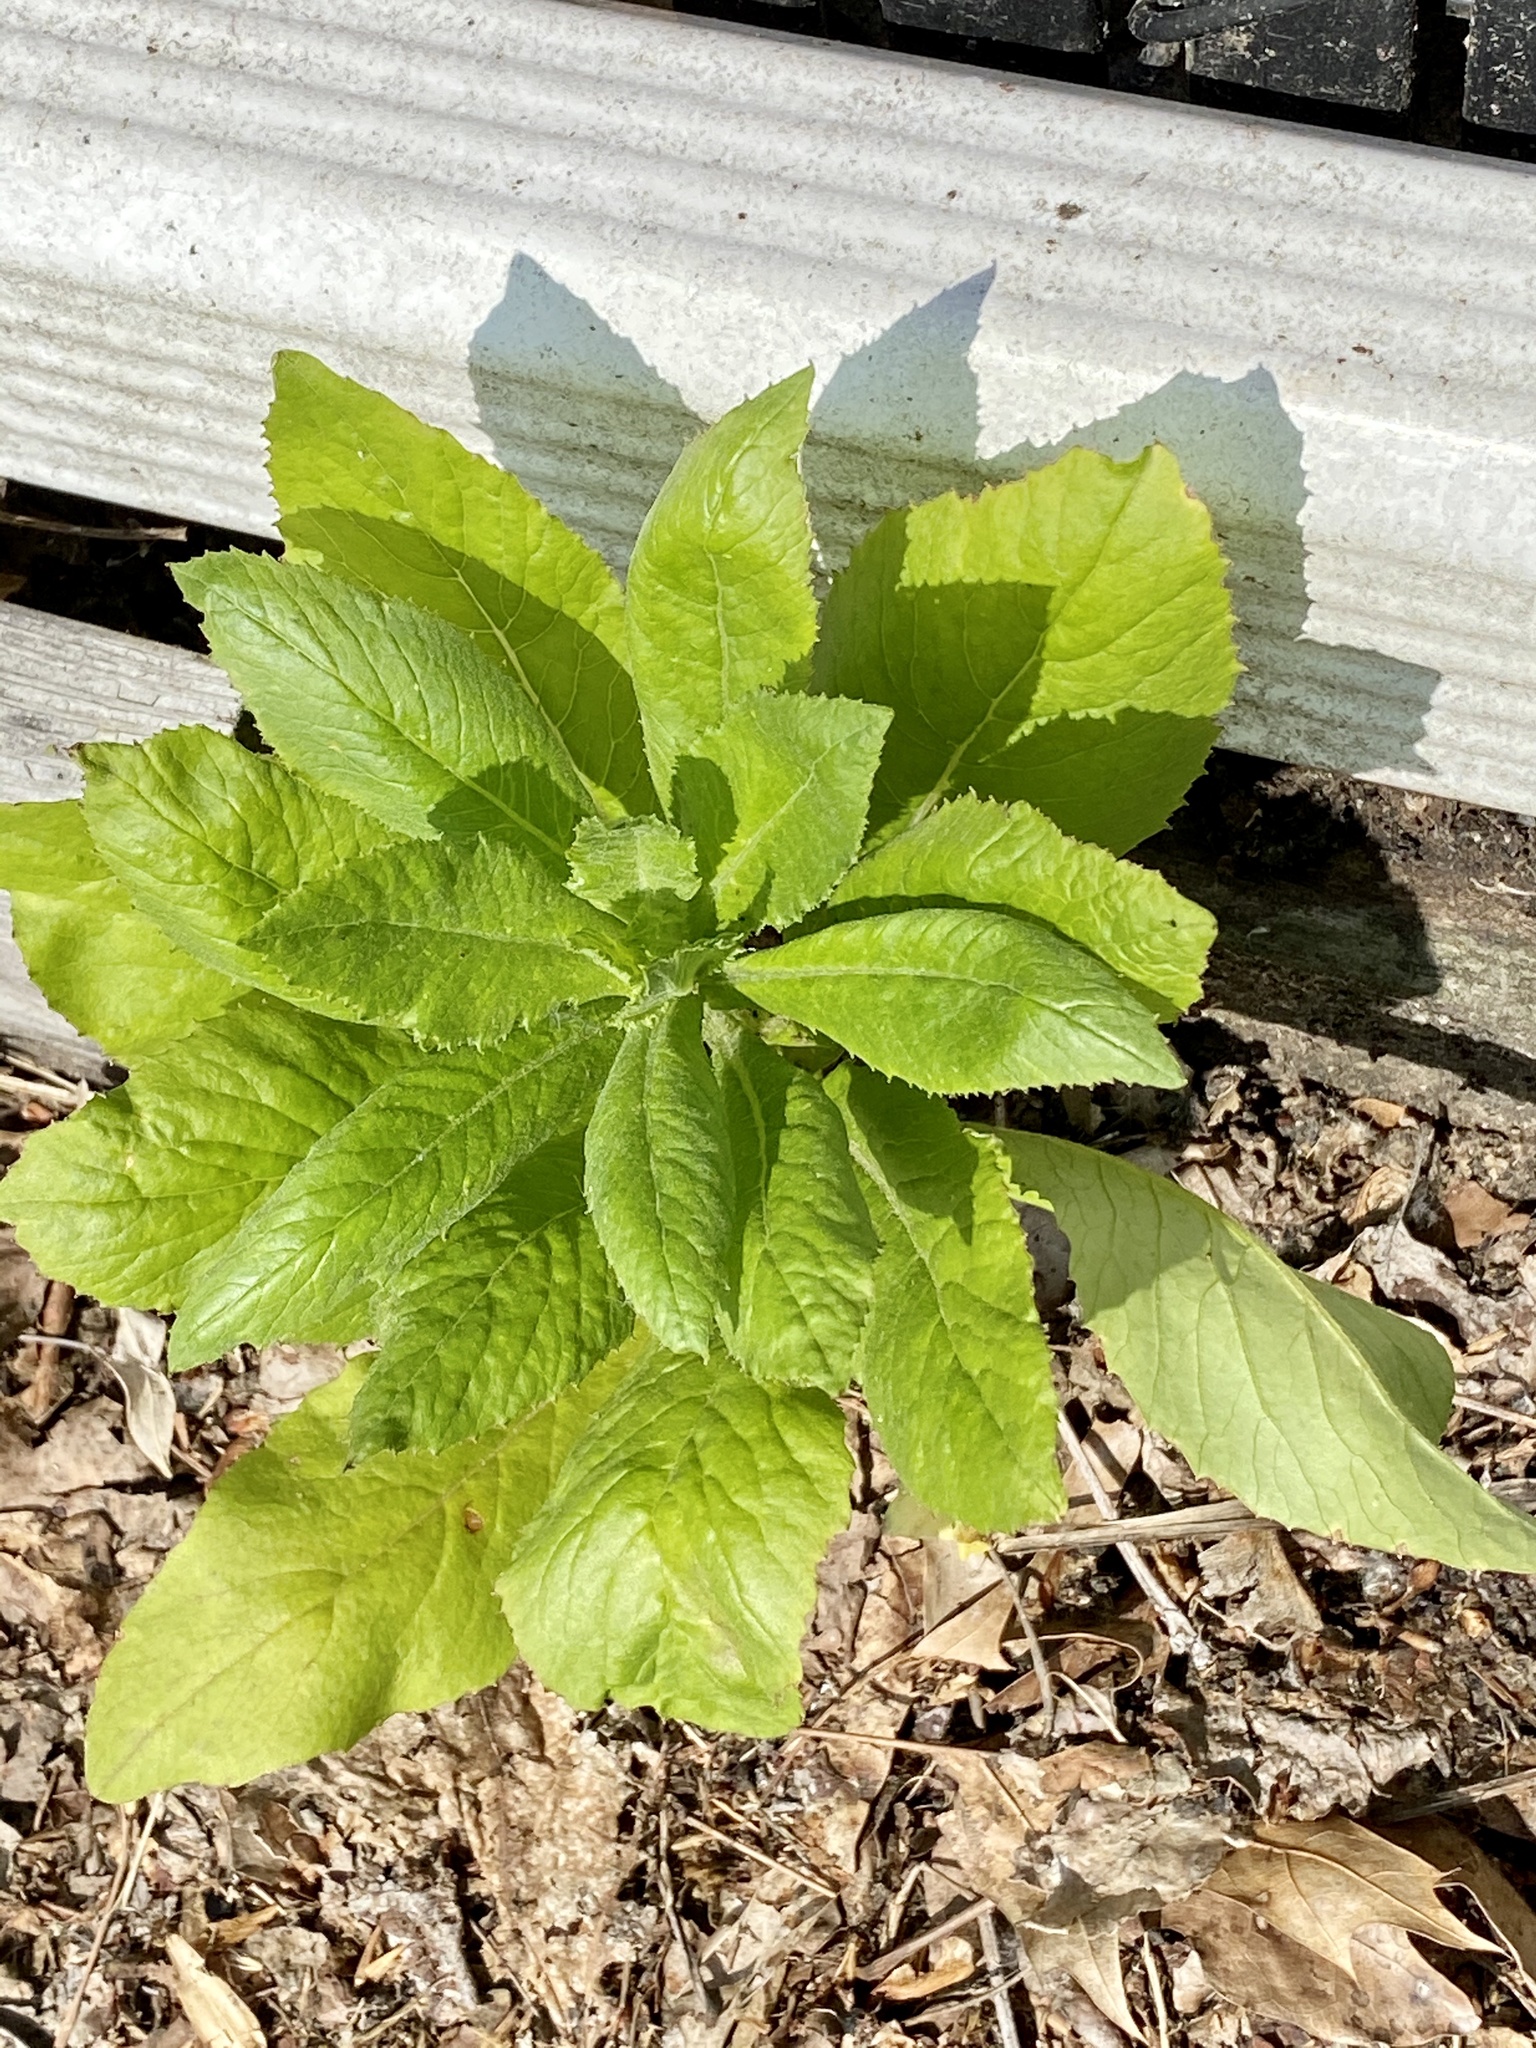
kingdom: Plantae
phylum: Tracheophyta
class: Magnoliopsida
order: Asterales
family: Asteraceae
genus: Erechtites
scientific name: Erechtites hieraciifolius
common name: American burnweed
